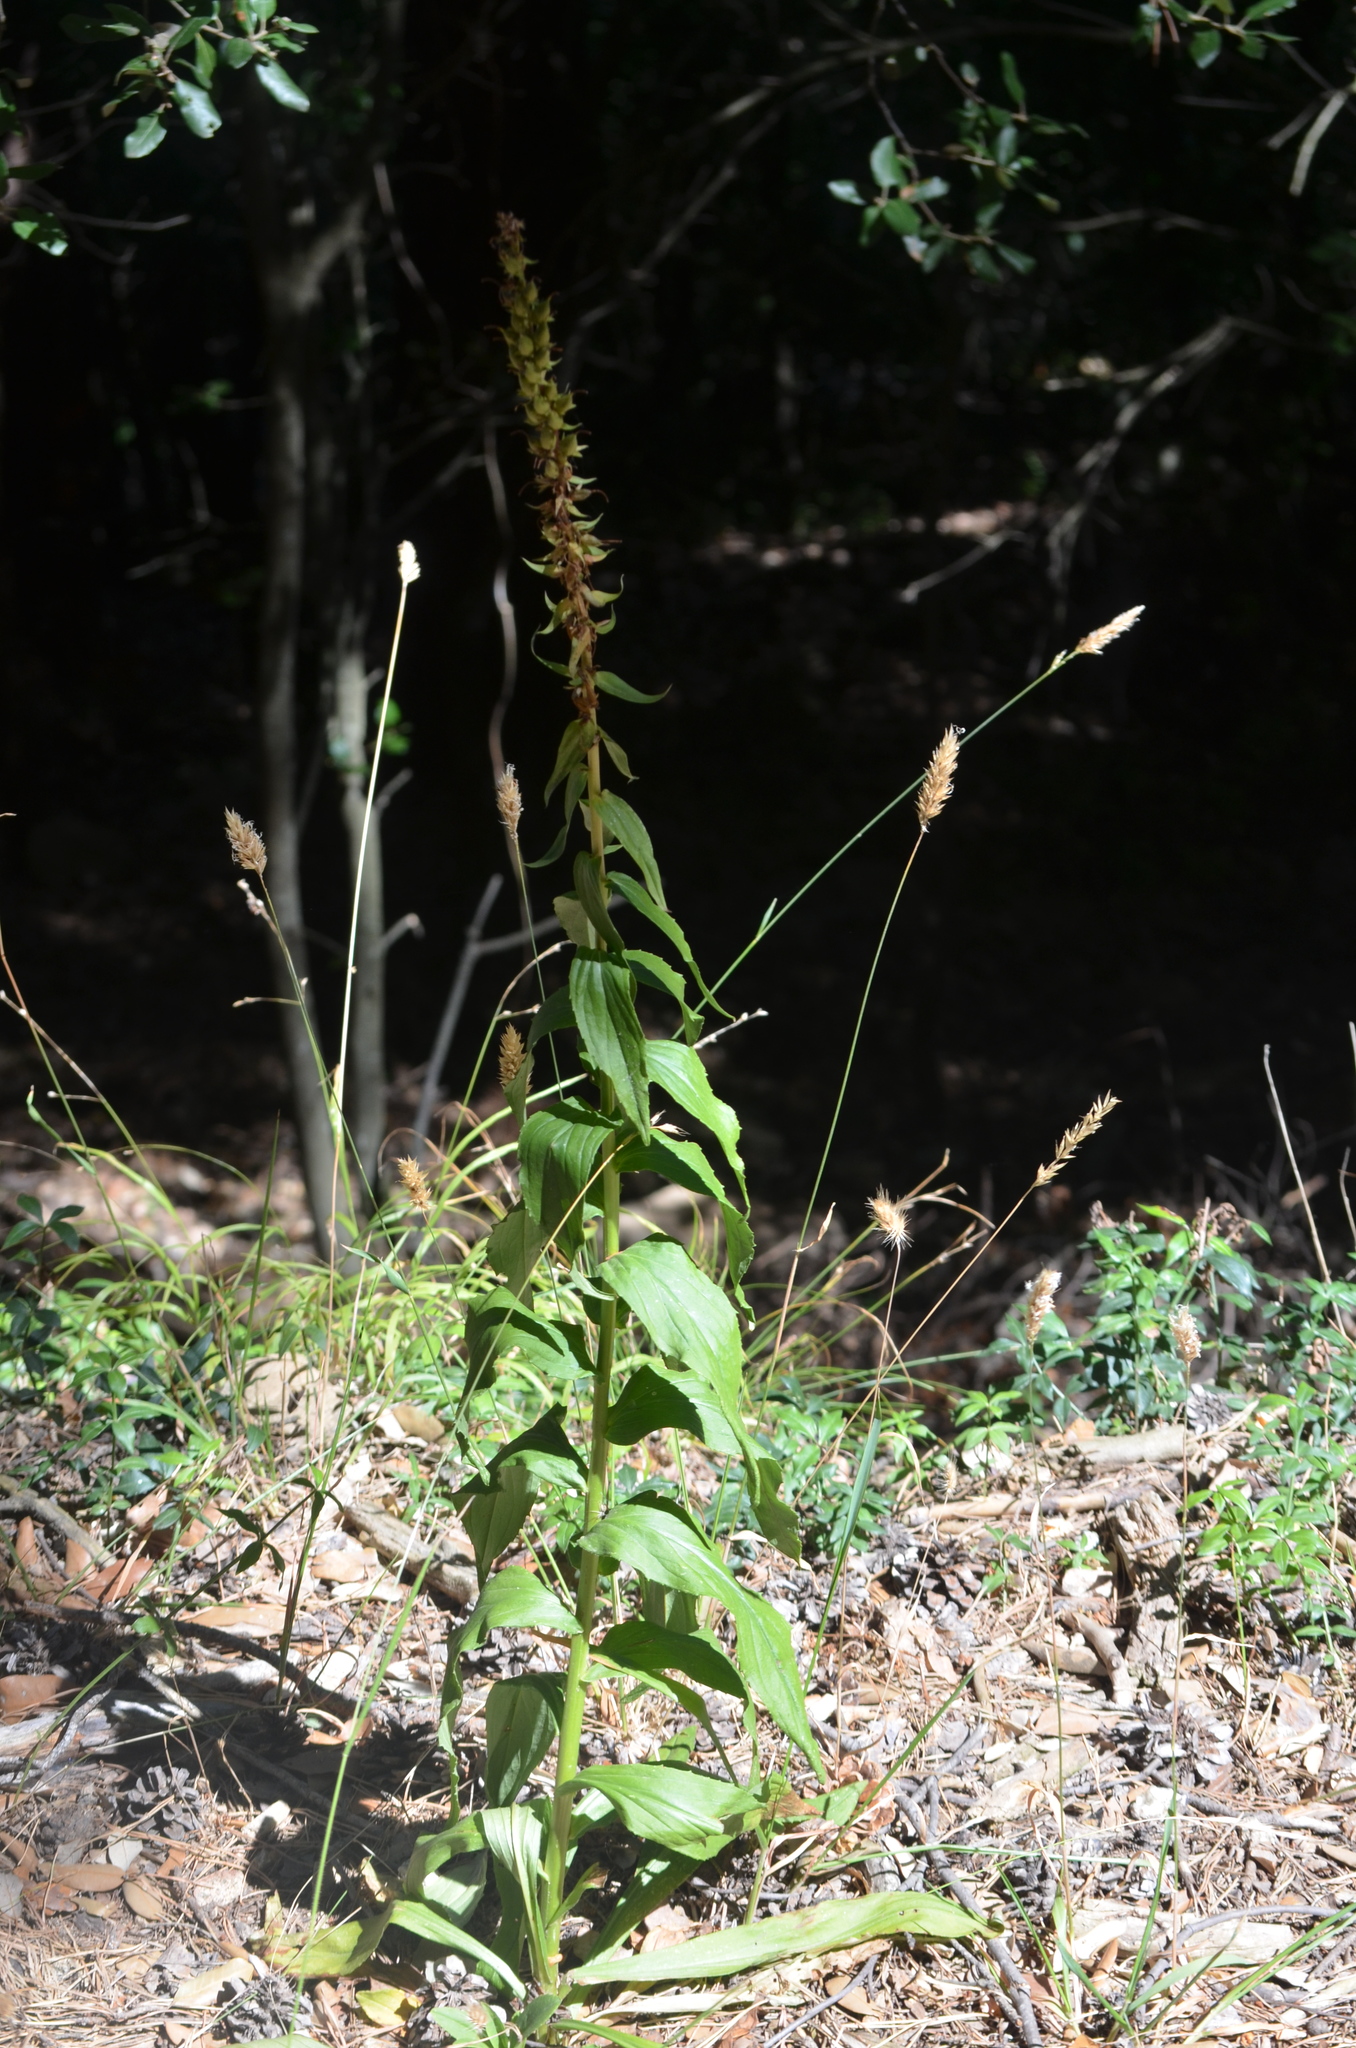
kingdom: Plantae
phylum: Tracheophyta
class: Magnoliopsida
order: Lamiales
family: Plantaginaceae
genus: Digitalis
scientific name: Digitalis lutea
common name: Straw foxglove
